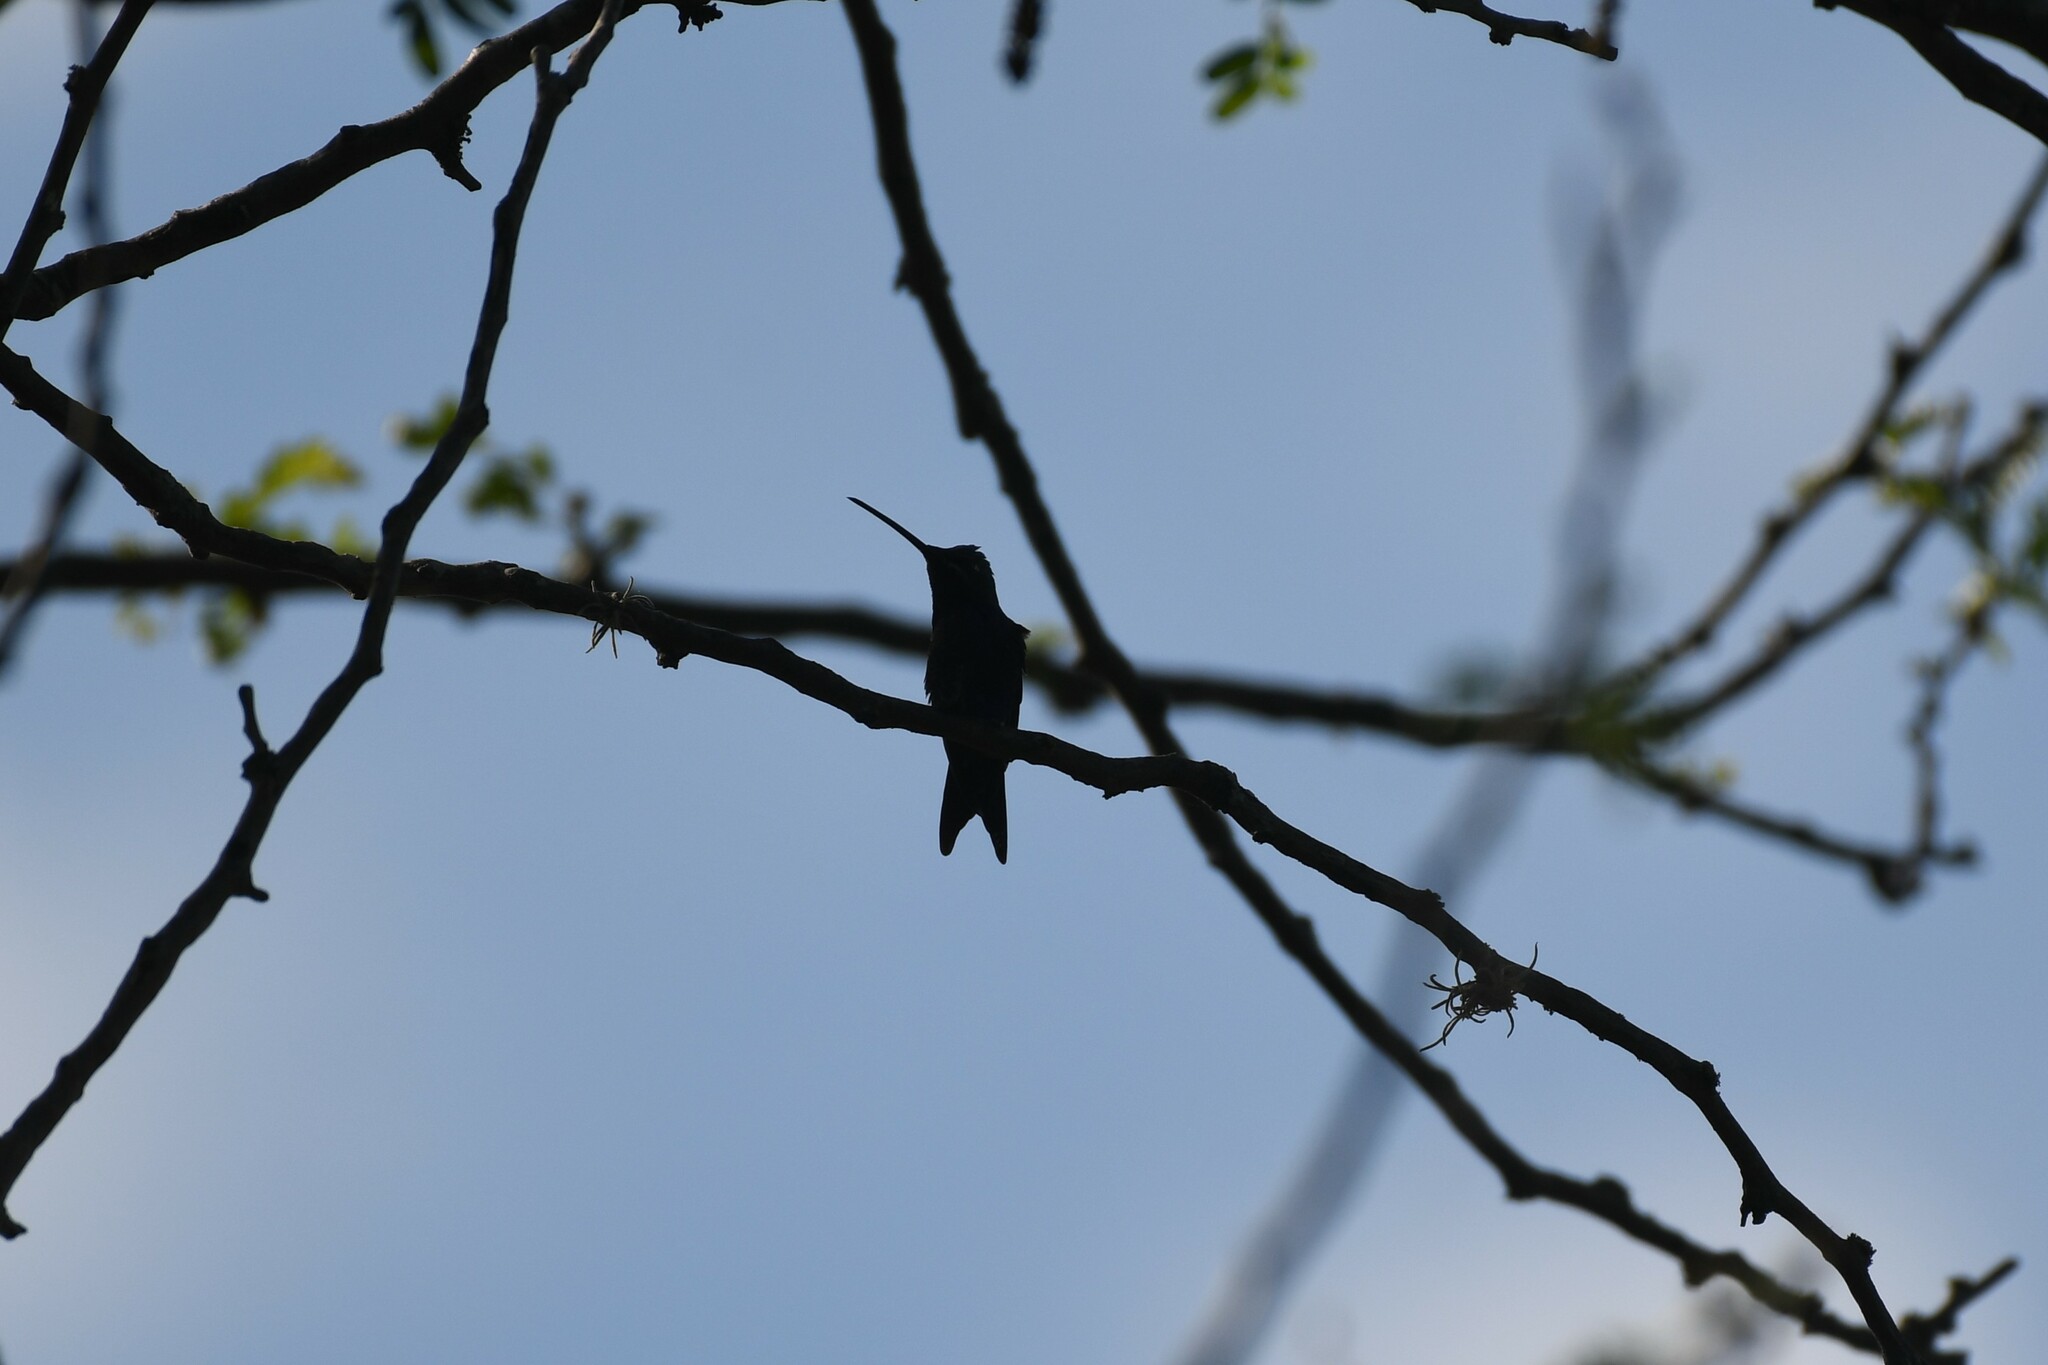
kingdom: Animalia
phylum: Chordata
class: Aves
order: Apodiformes
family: Trochilidae
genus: Heliomaster
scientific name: Heliomaster furcifer
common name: Blue-tufted starthroat
